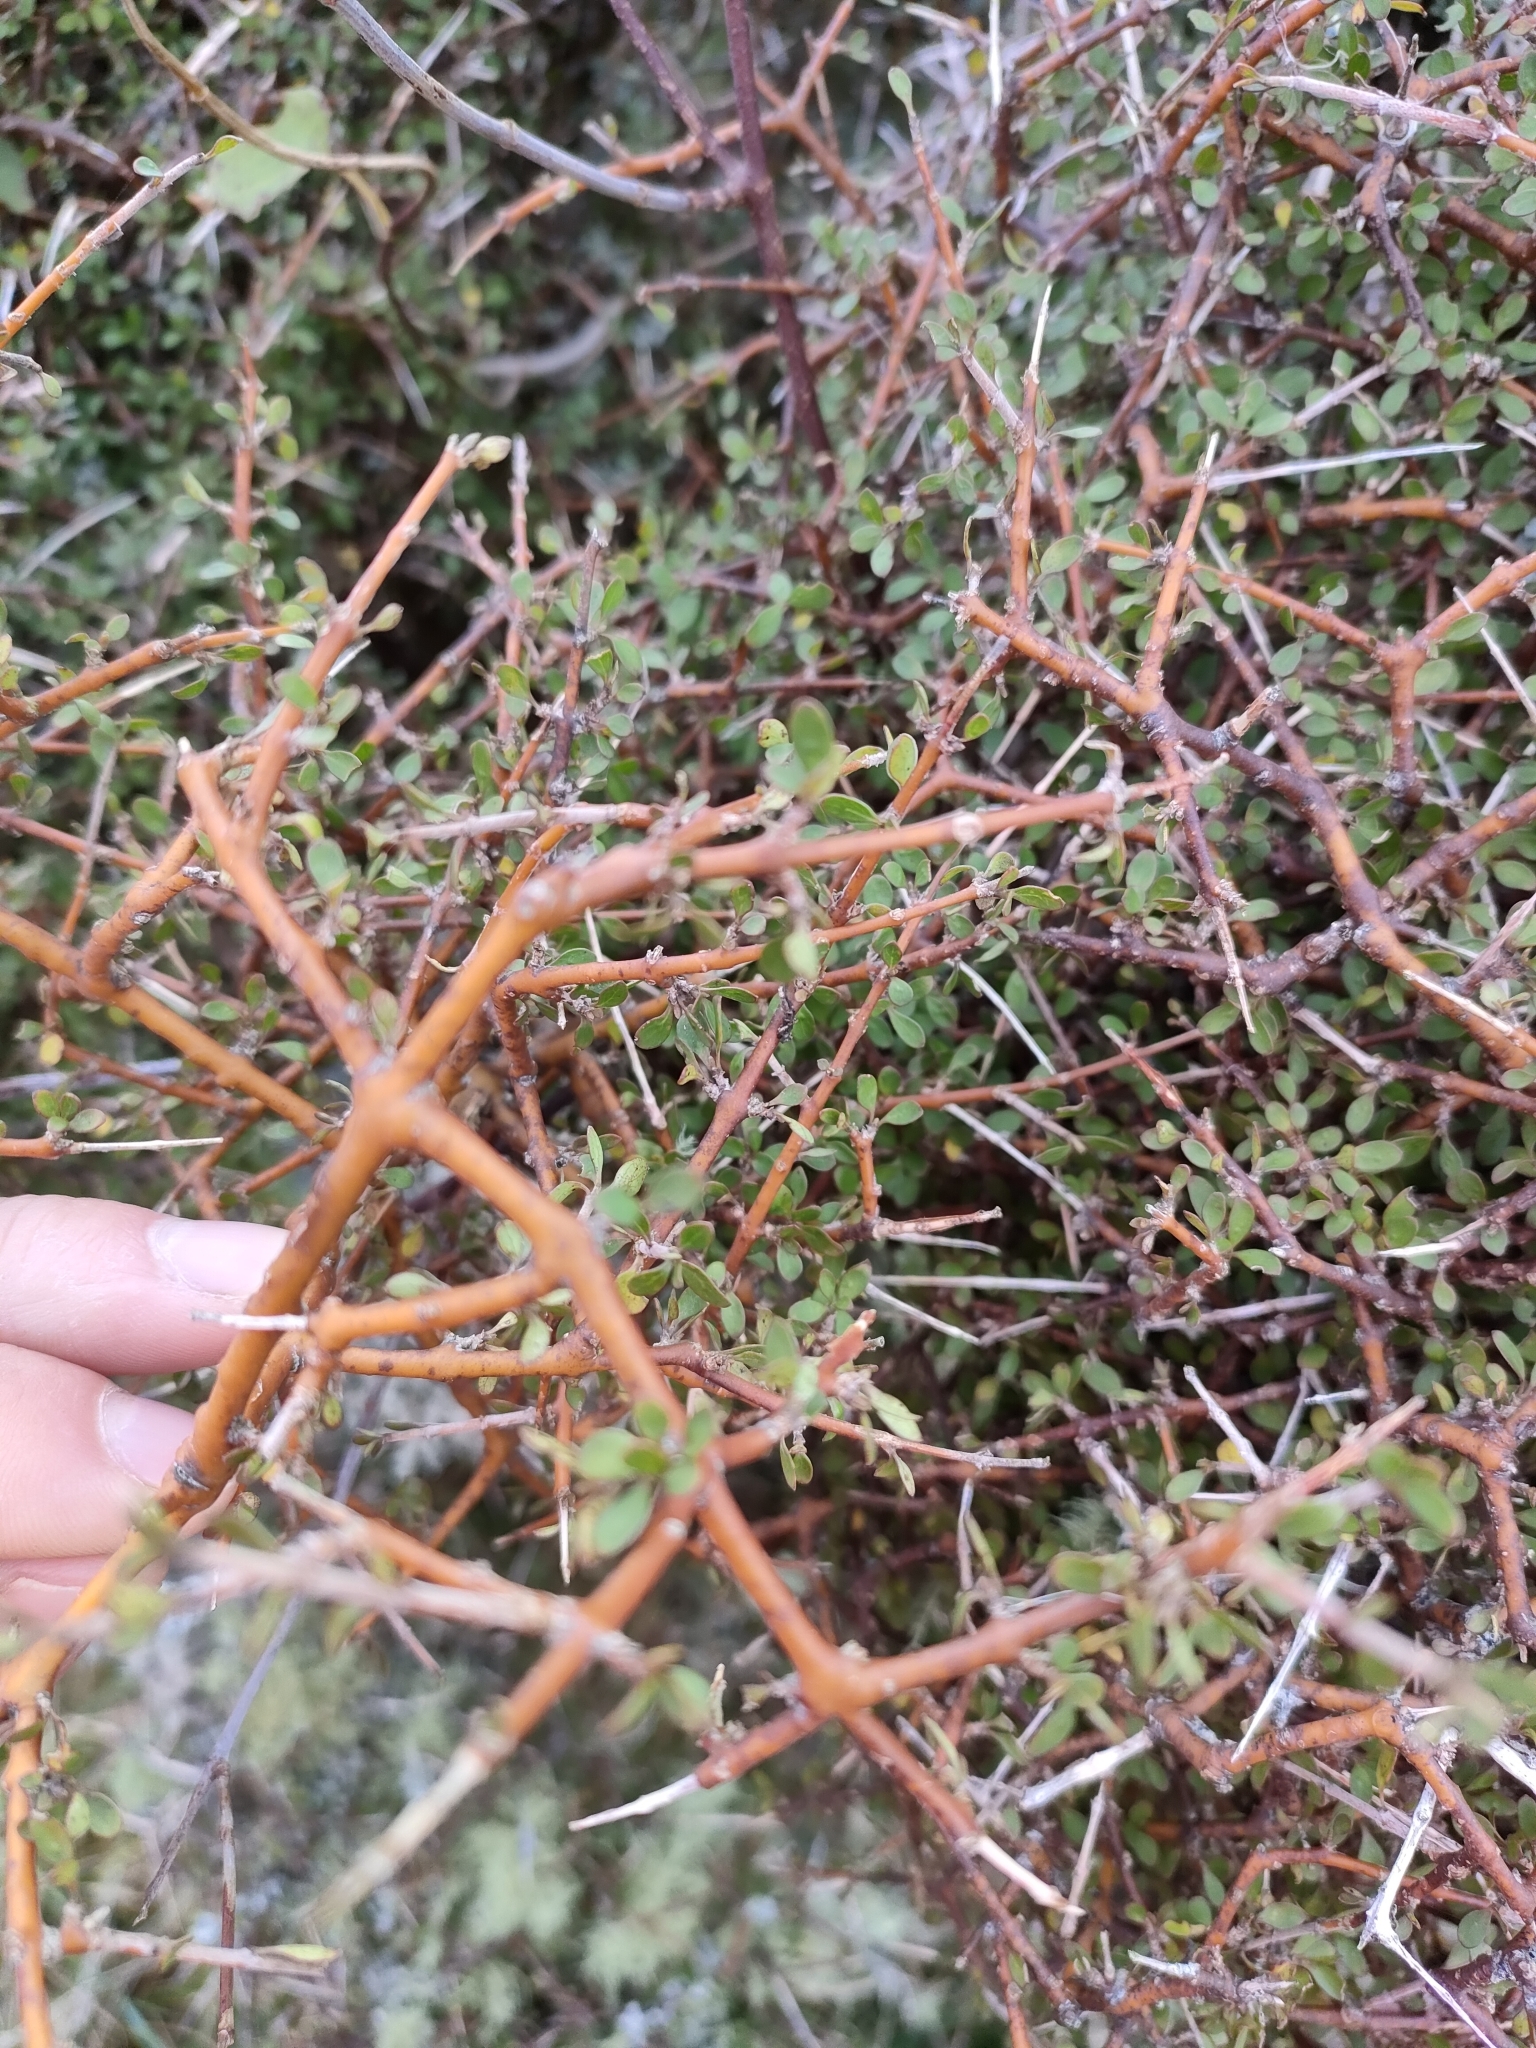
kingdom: Plantae
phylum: Tracheophyta
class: Magnoliopsida
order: Gentianales
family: Rubiaceae
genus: Coprosma
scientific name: Coprosma rigida
